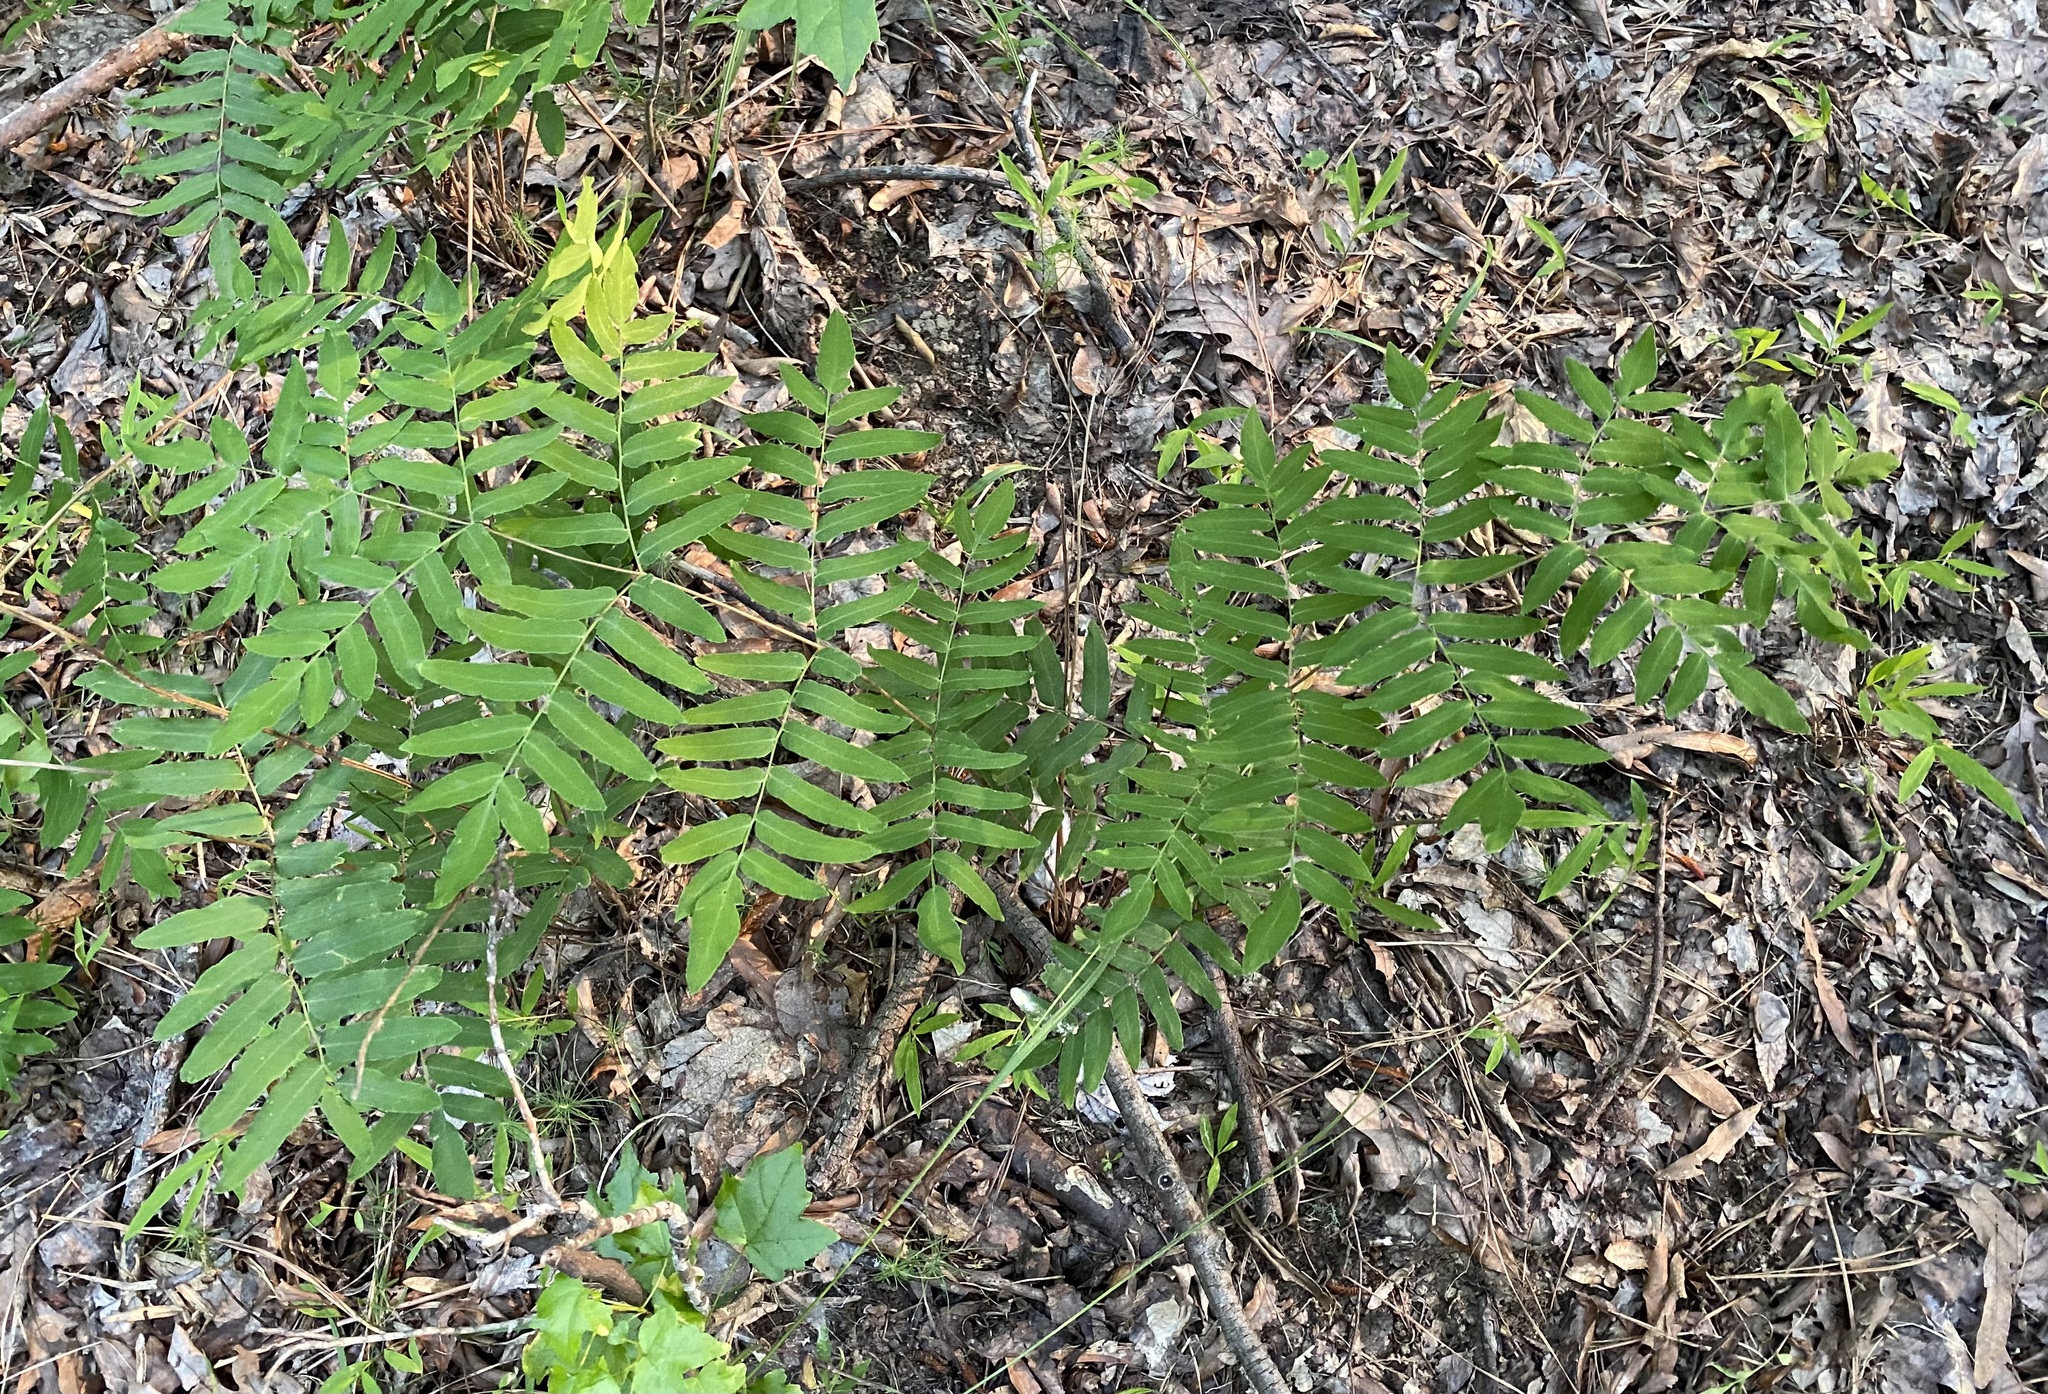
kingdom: Plantae
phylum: Tracheophyta
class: Polypodiopsida
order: Osmundales
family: Osmundaceae
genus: Osmunda
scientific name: Osmunda spectabilis
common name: American royal fern
